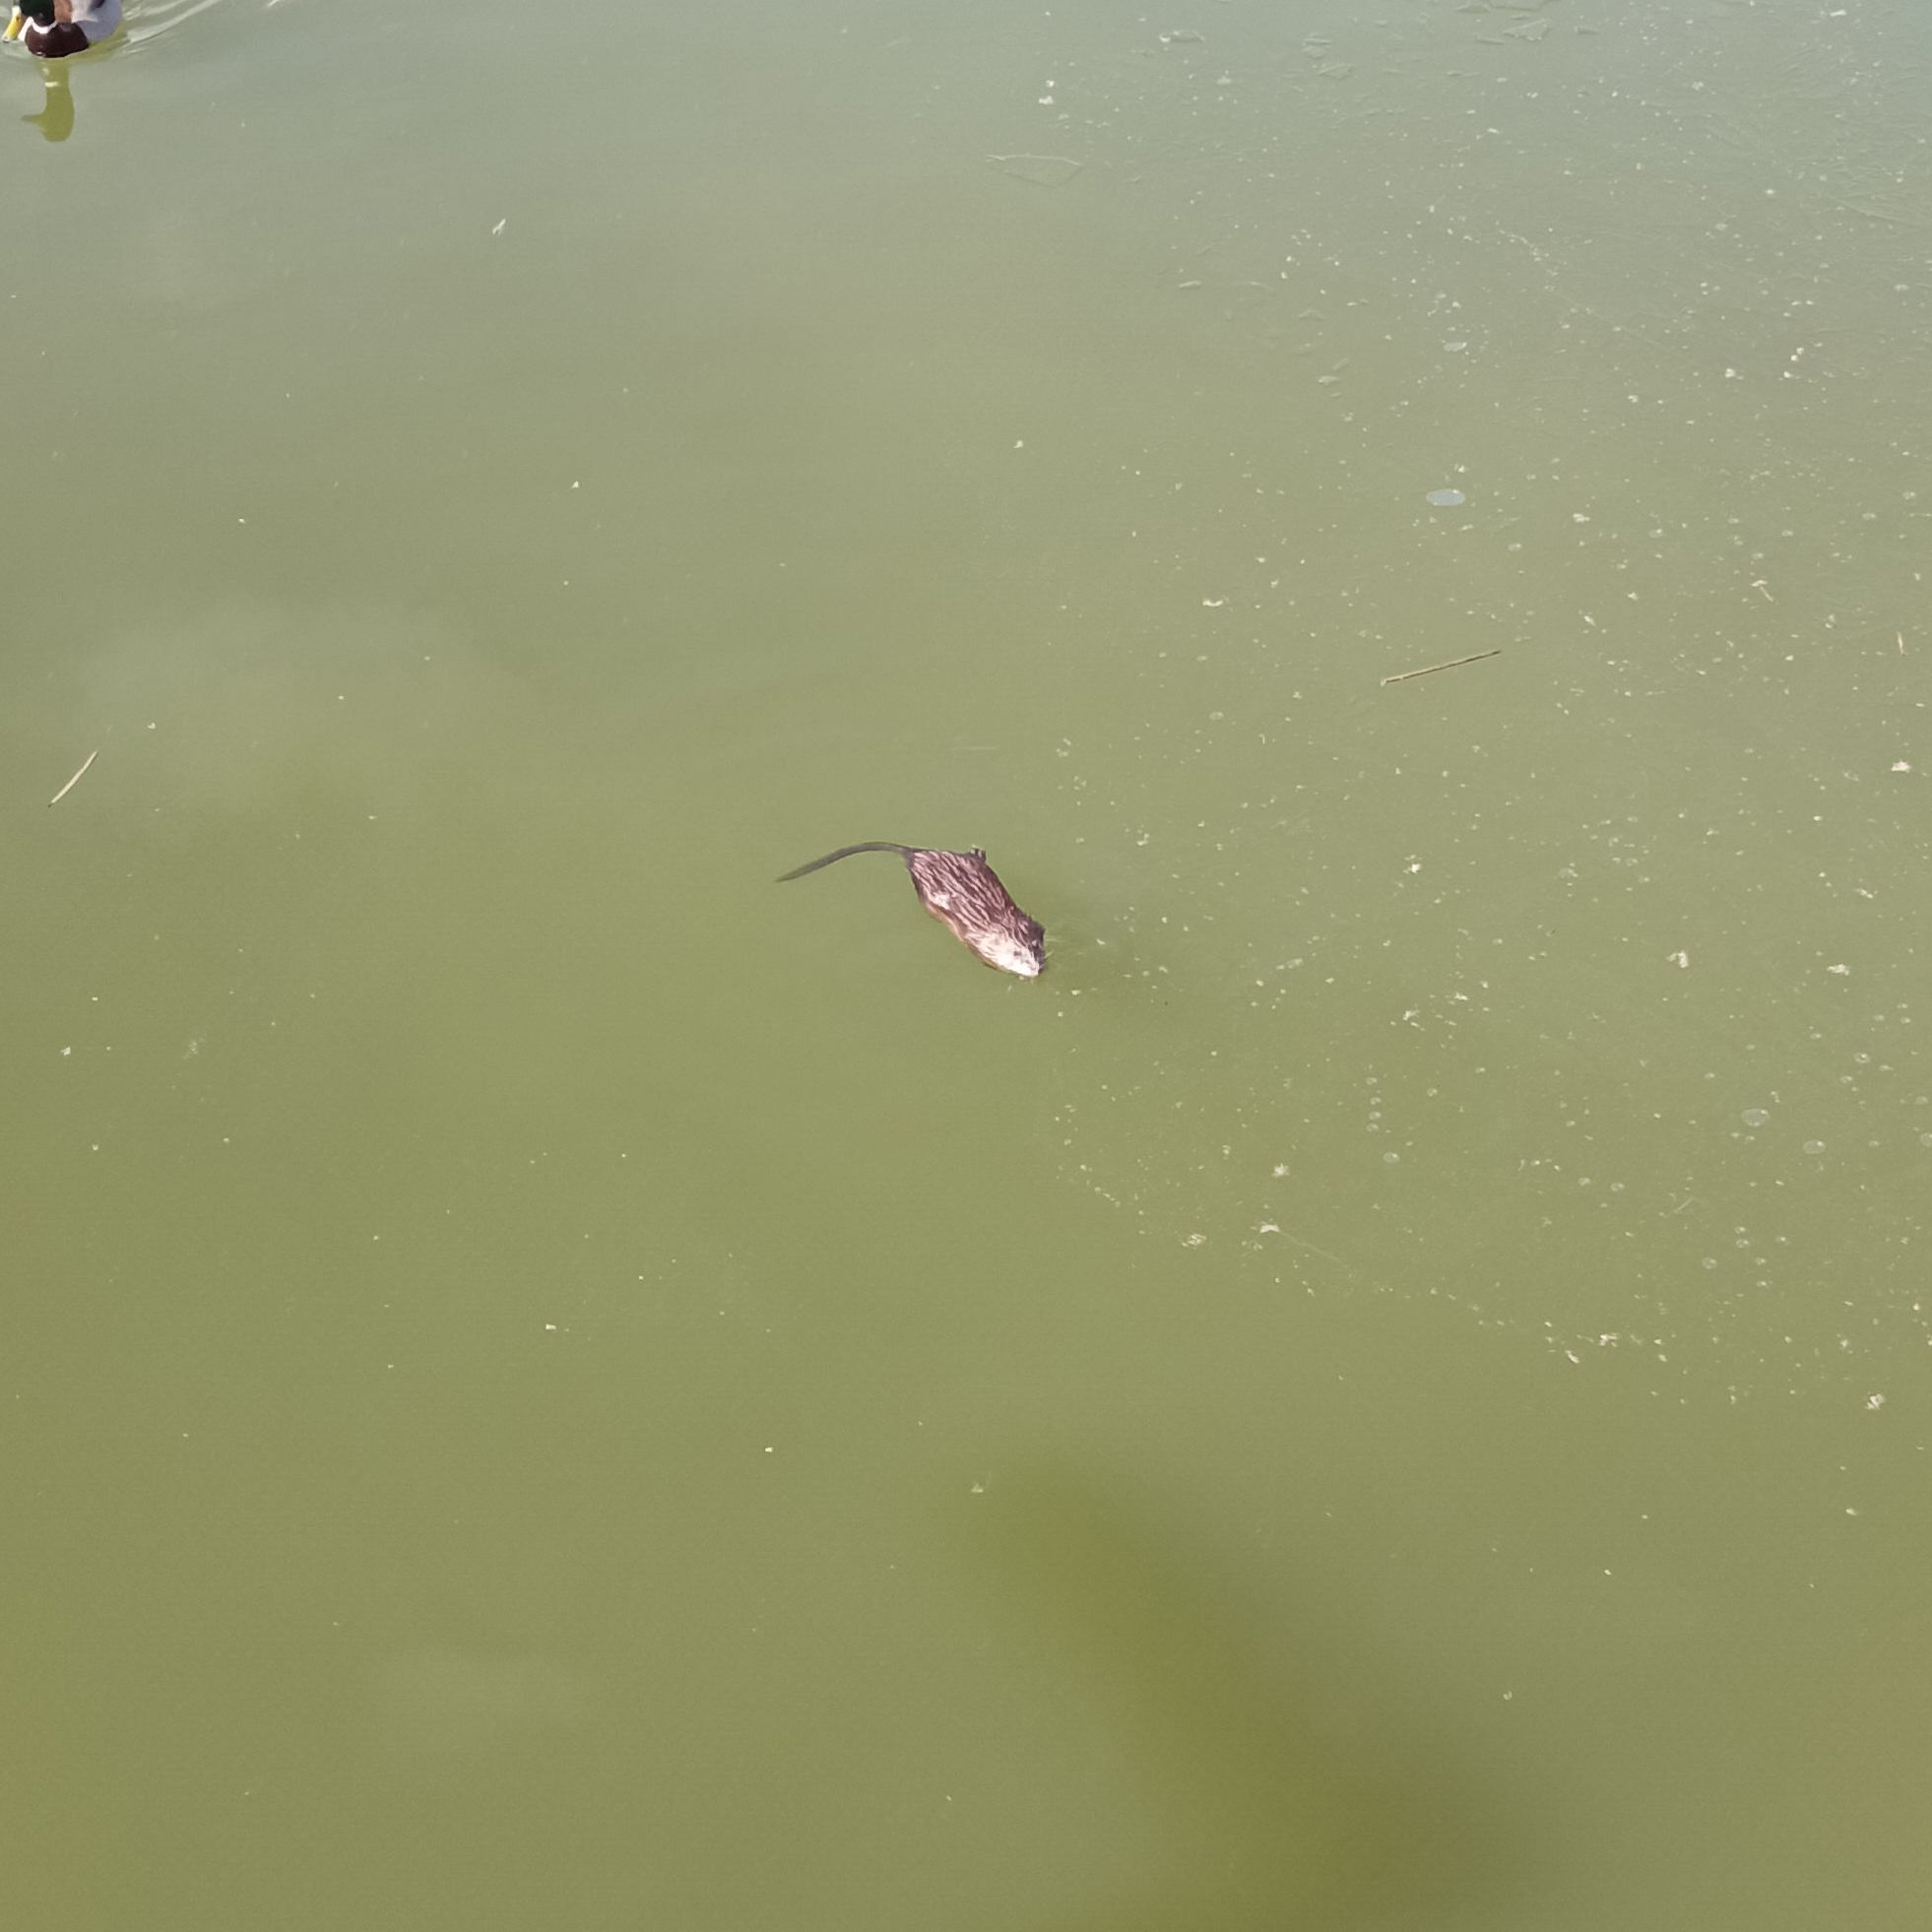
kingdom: Animalia
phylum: Chordata
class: Mammalia
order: Rodentia
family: Cricetidae
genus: Ondatra
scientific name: Ondatra zibethicus
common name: Muskrat
